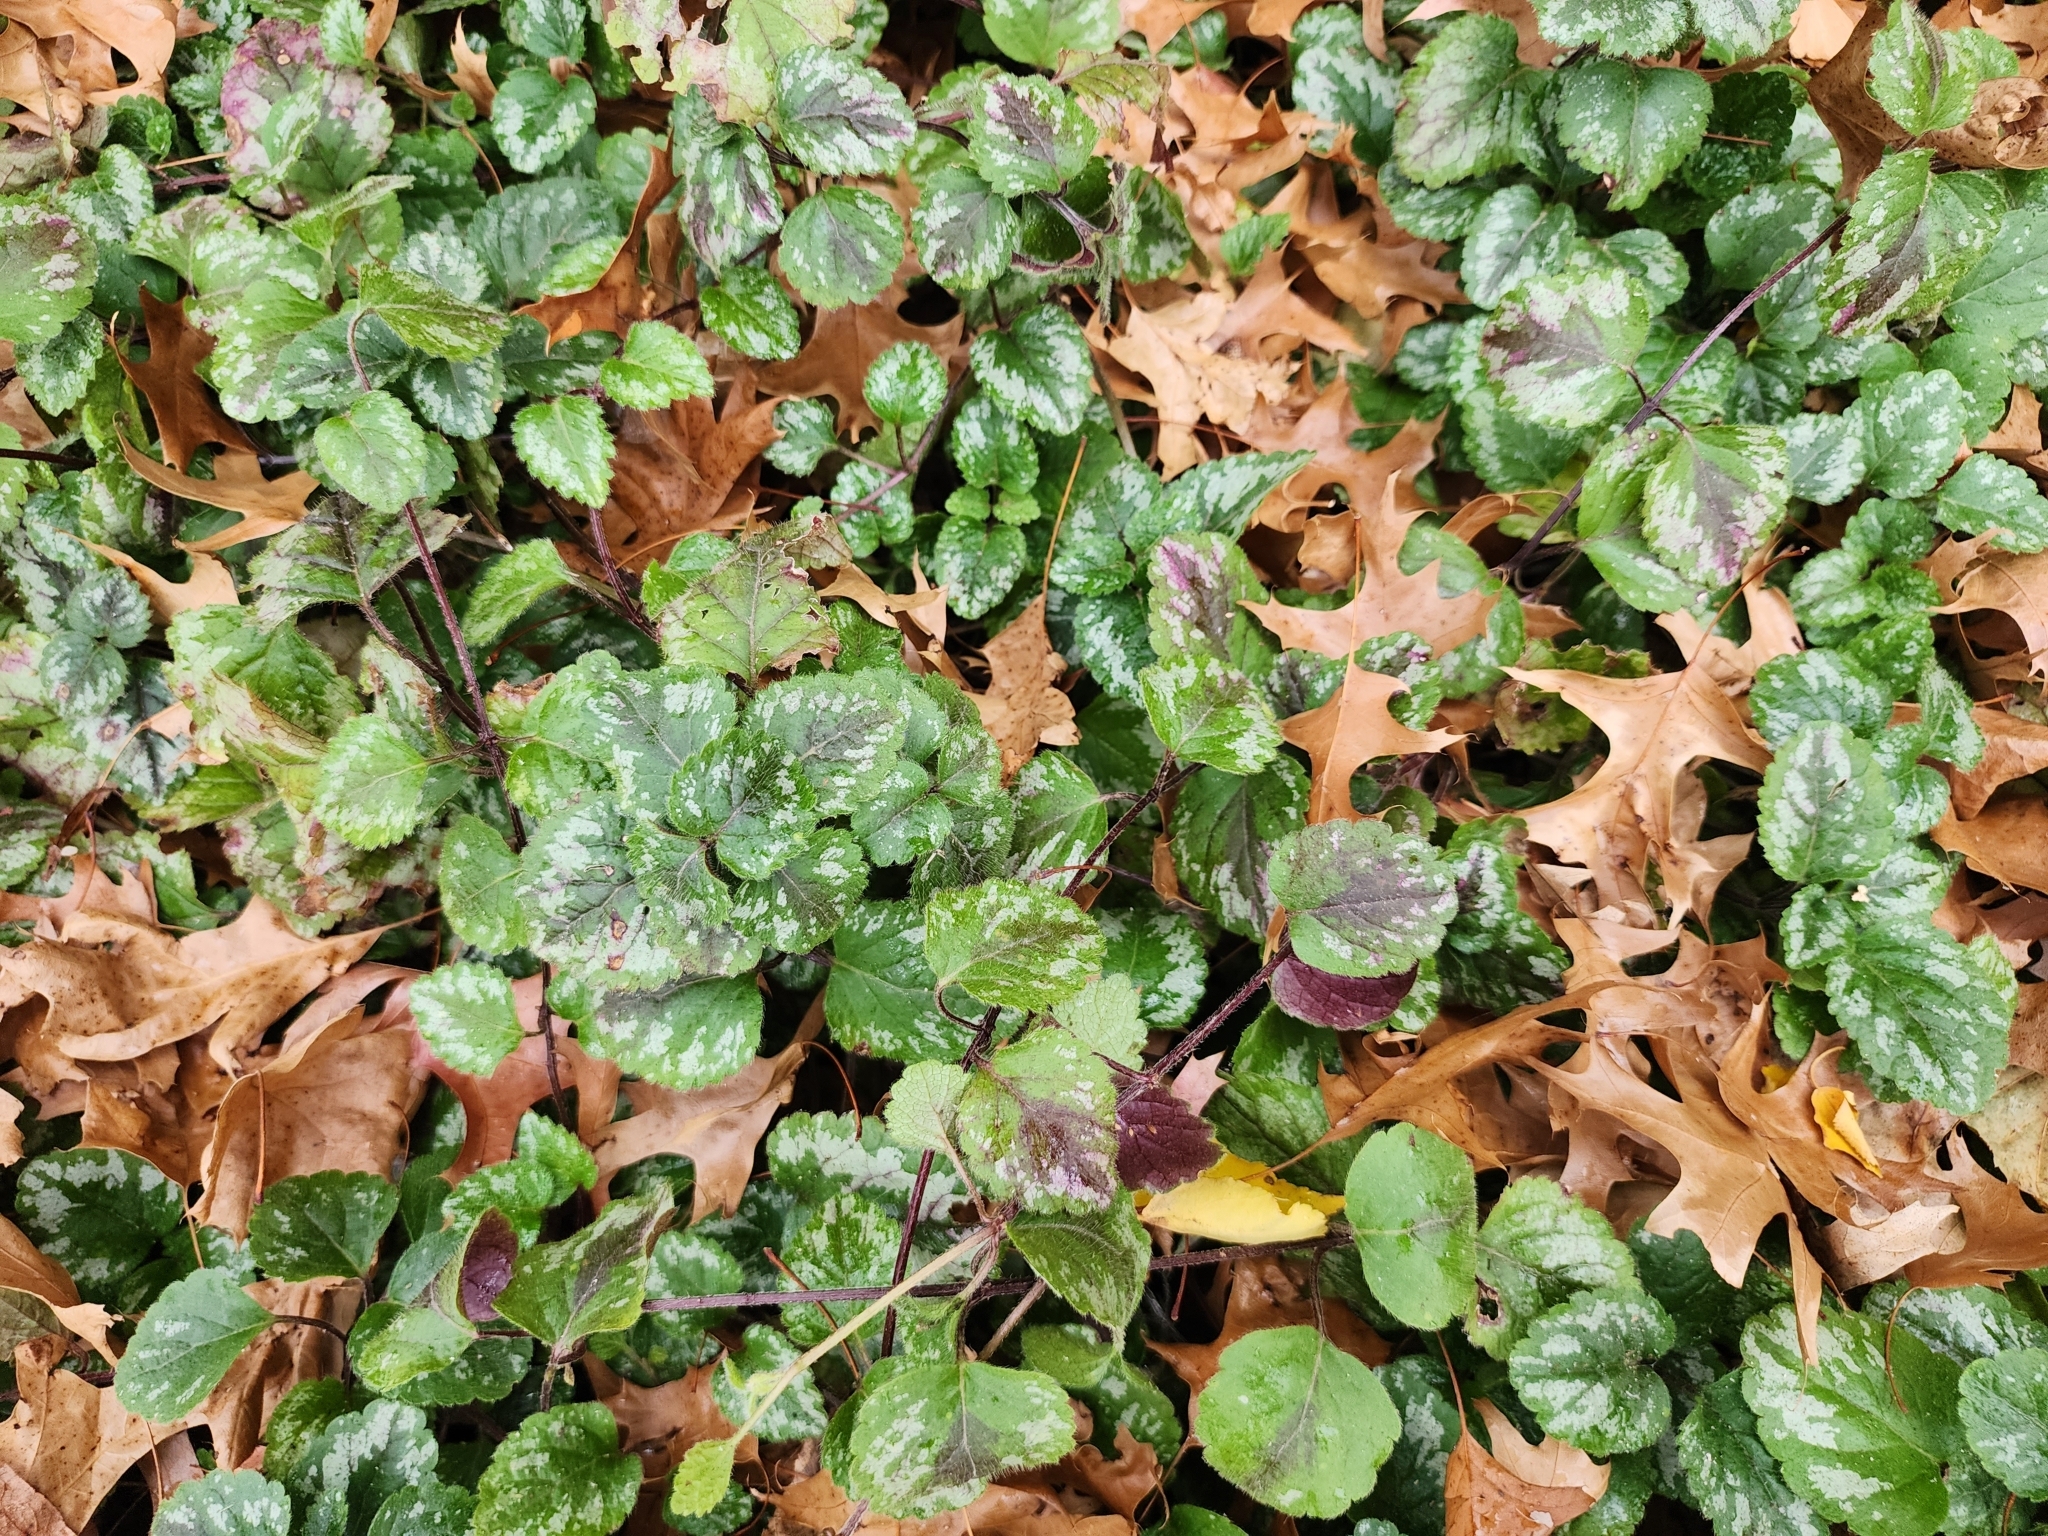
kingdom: Plantae
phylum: Tracheophyta
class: Magnoliopsida
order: Lamiales
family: Lamiaceae
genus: Lamium
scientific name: Lamium galeobdolon
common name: Yellow archangel
